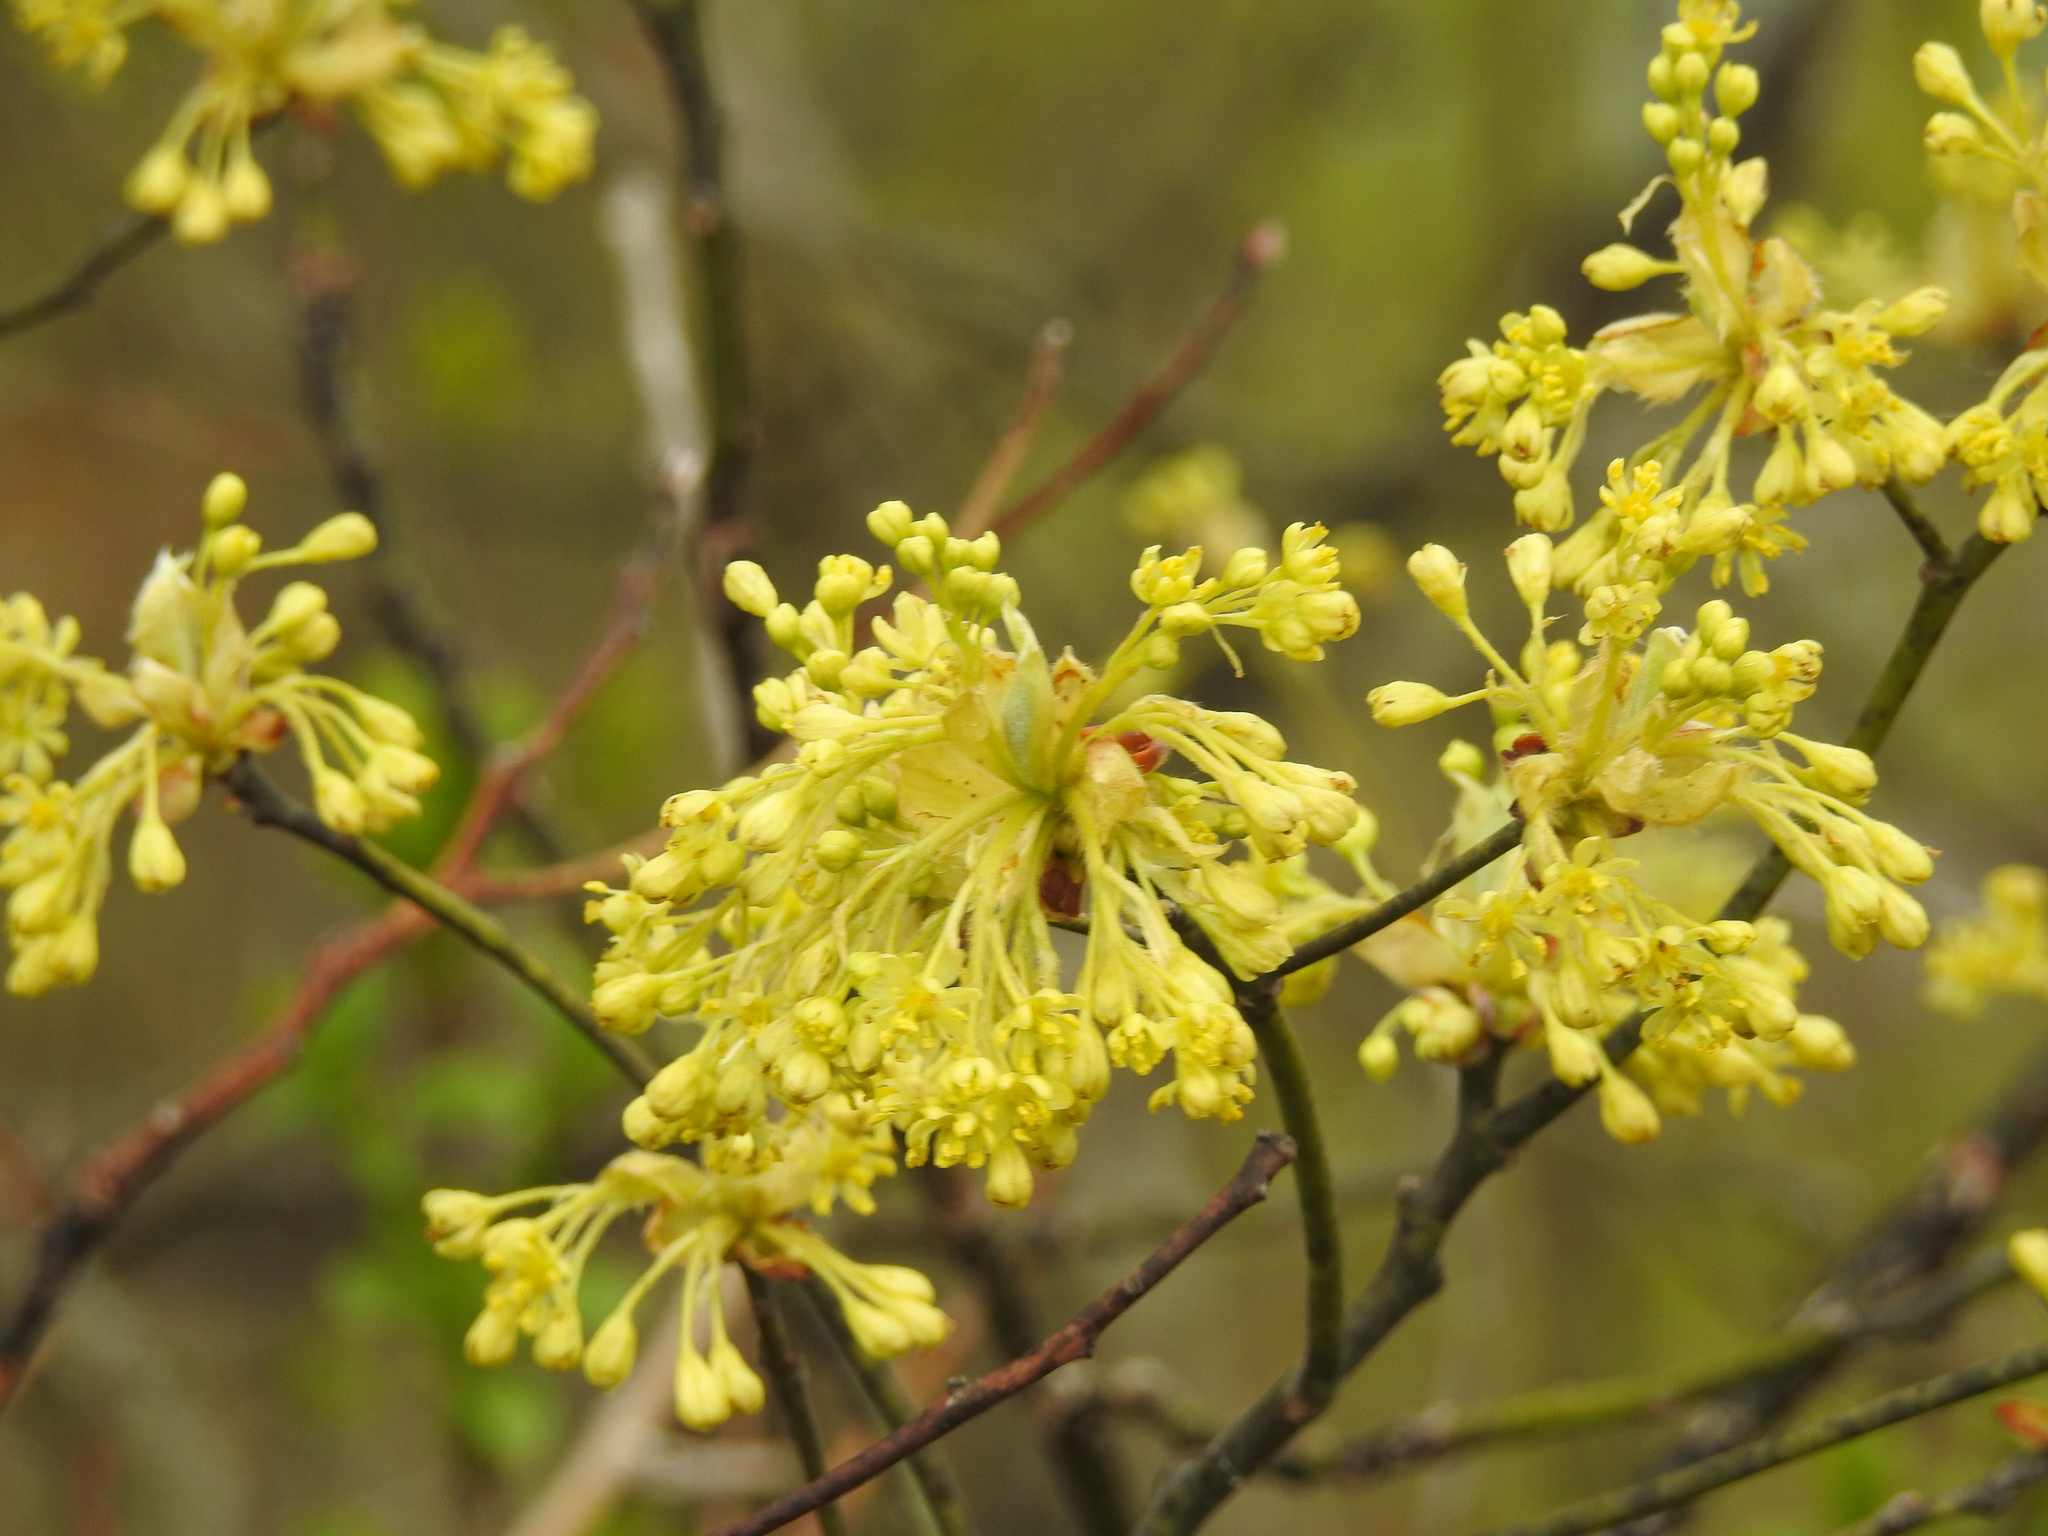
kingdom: Plantae
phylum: Tracheophyta
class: Magnoliopsida
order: Laurales
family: Lauraceae
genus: Sassafras
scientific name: Sassafras albidum
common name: Sassafras
